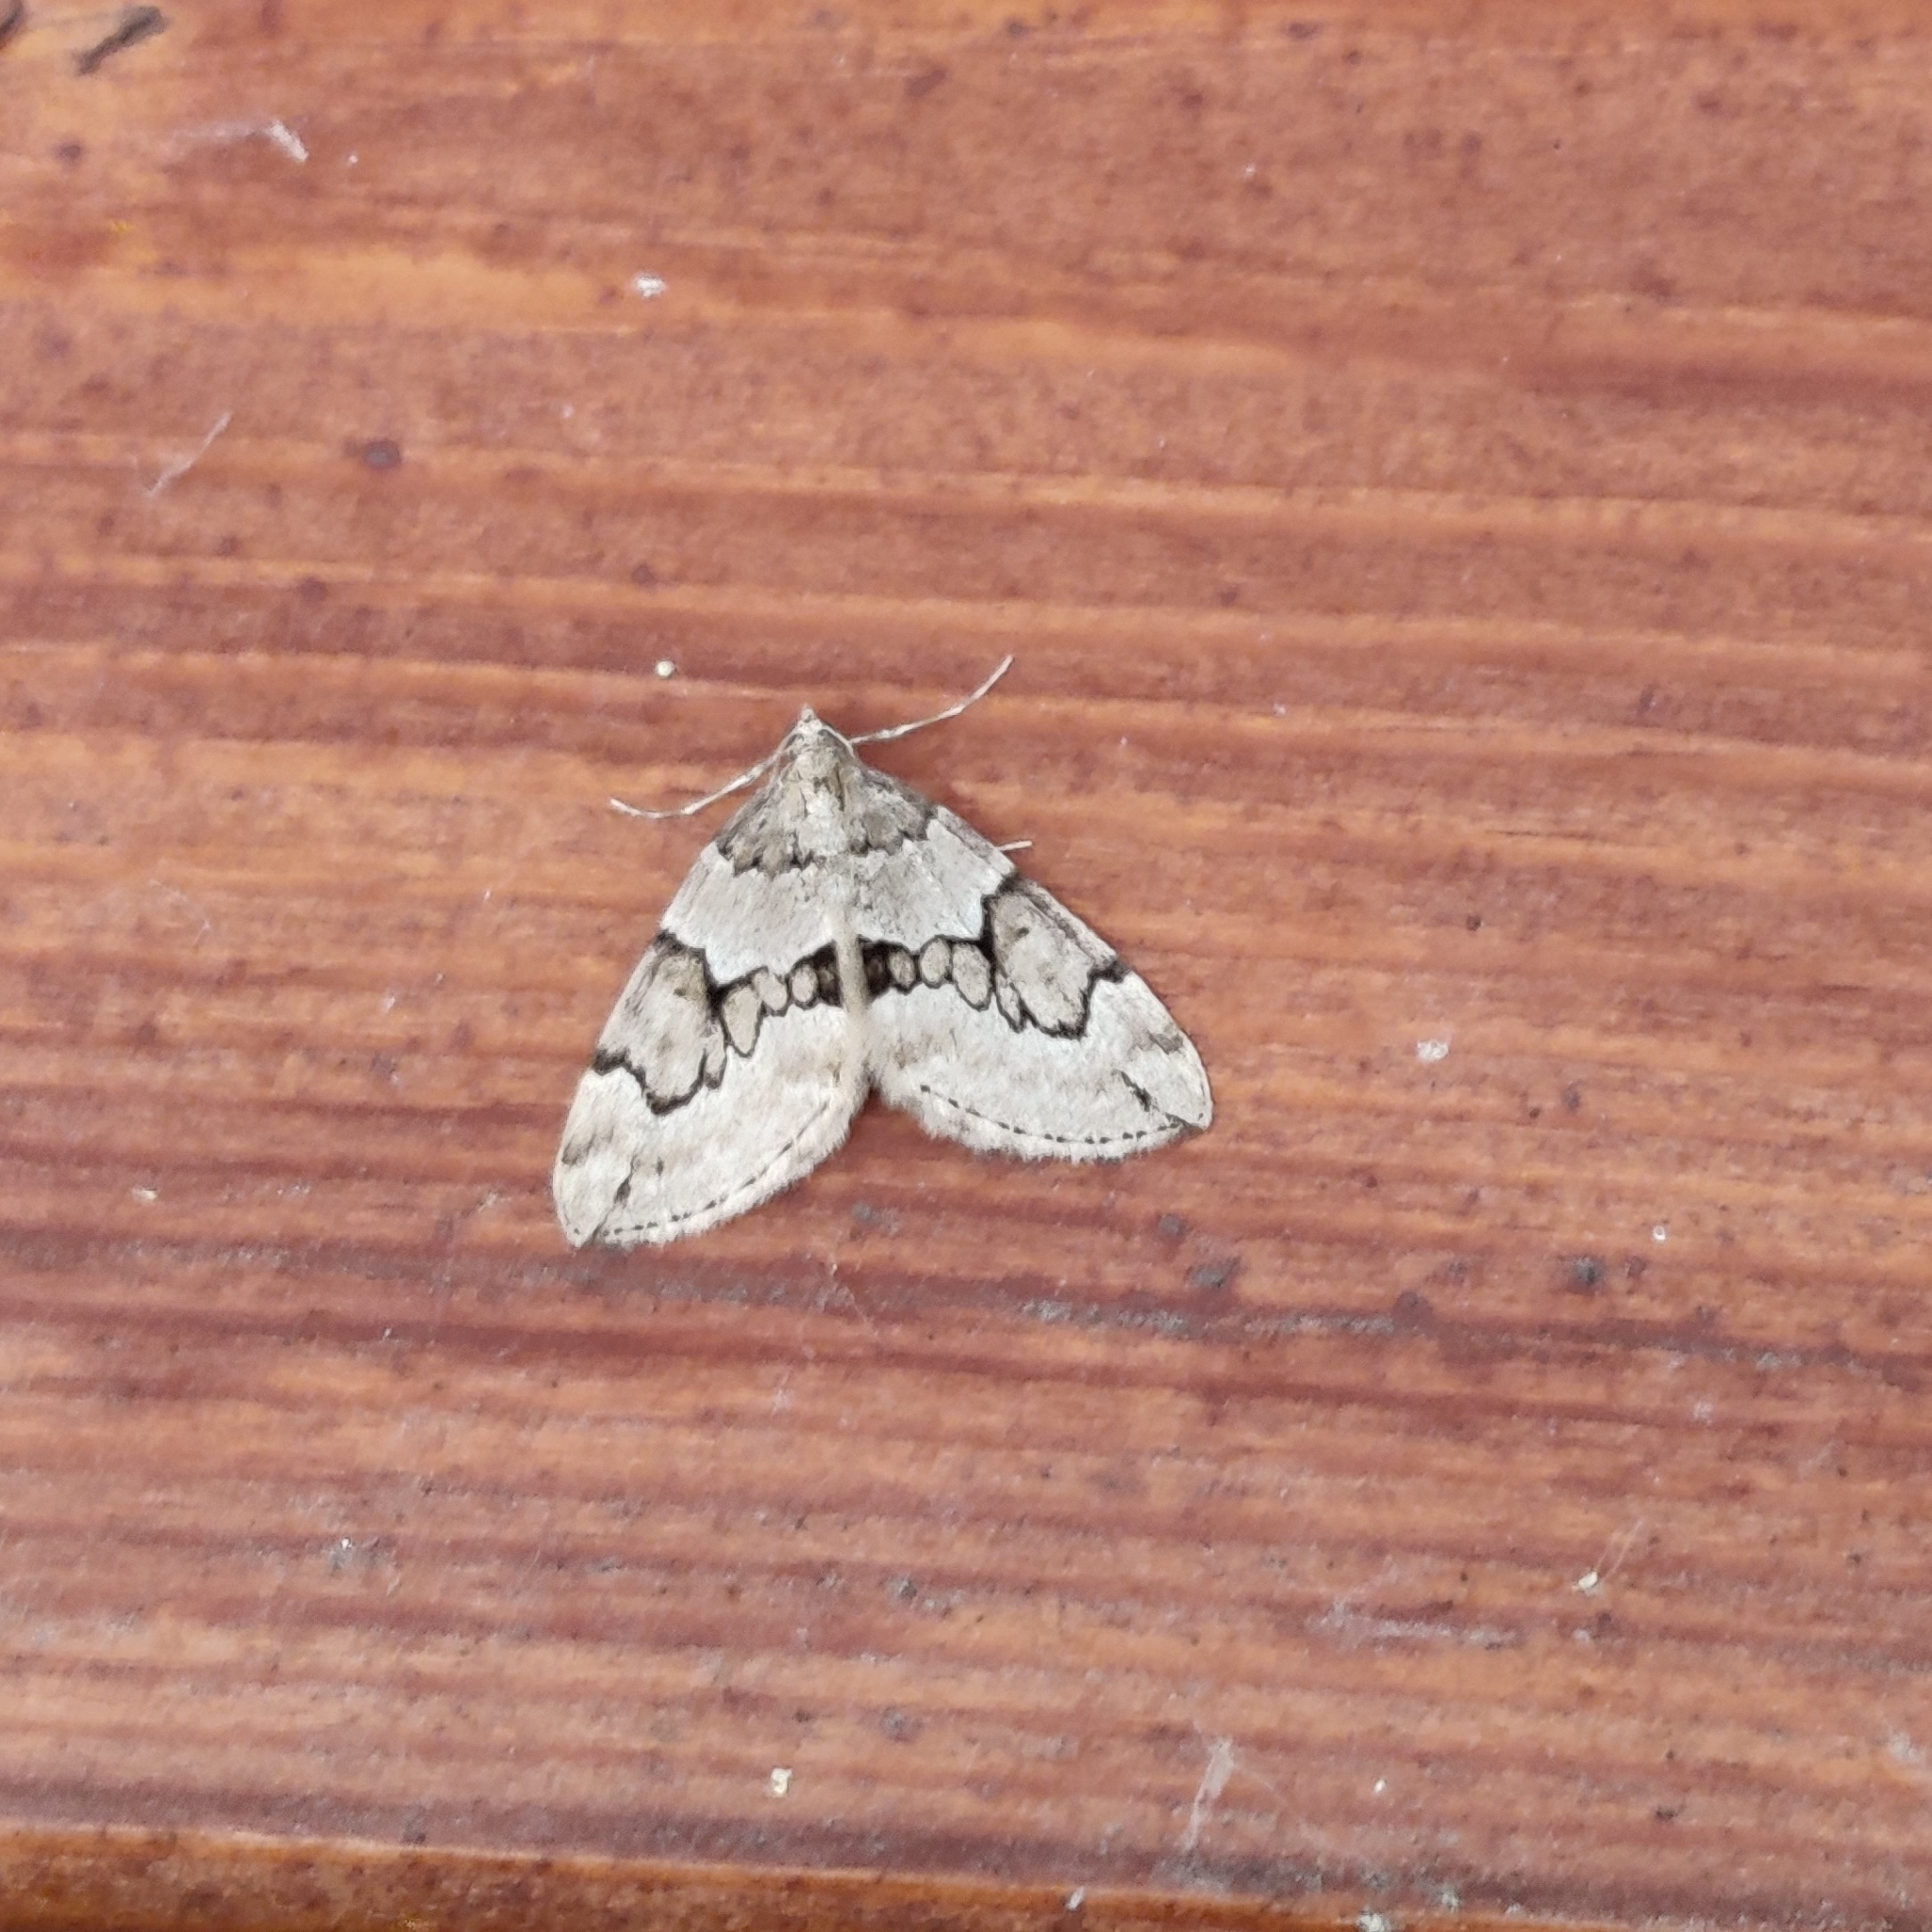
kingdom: Animalia
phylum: Arthropoda
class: Insecta
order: Lepidoptera
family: Geometridae
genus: Thera
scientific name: Thera juniperata
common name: Juniper carpet
